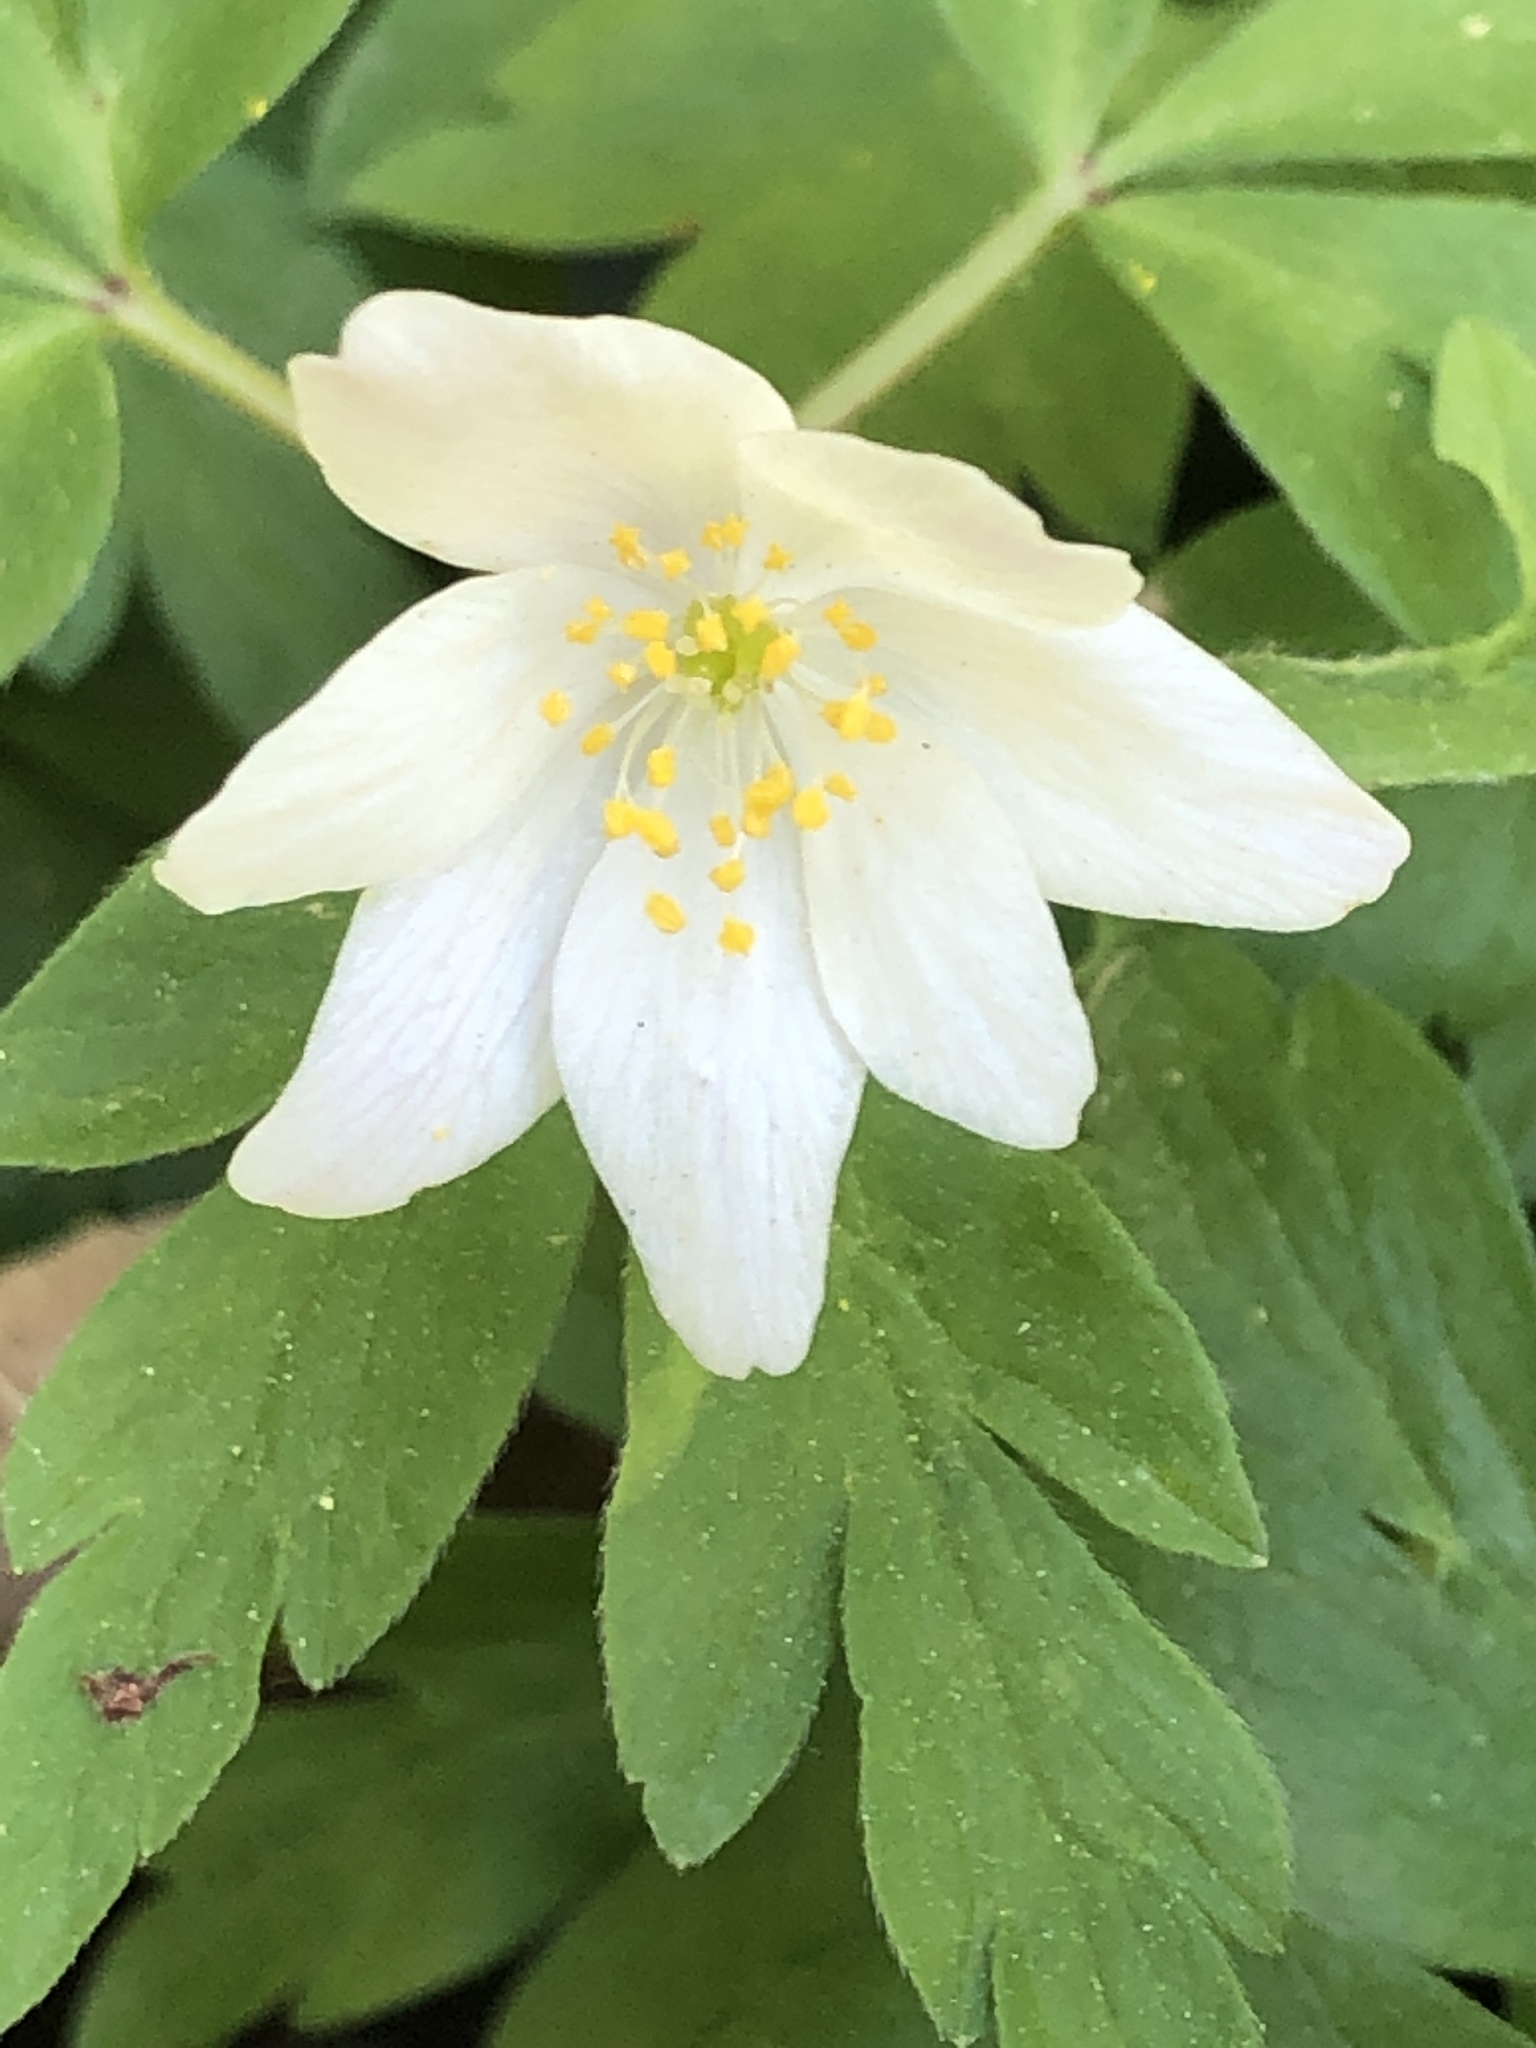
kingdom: Plantae
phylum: Tracheophyta
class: Magnoliopsida
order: Ranunculales
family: Ranunculaceae
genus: Anemone
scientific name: Anemone nemorosa
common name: Wood anemone
